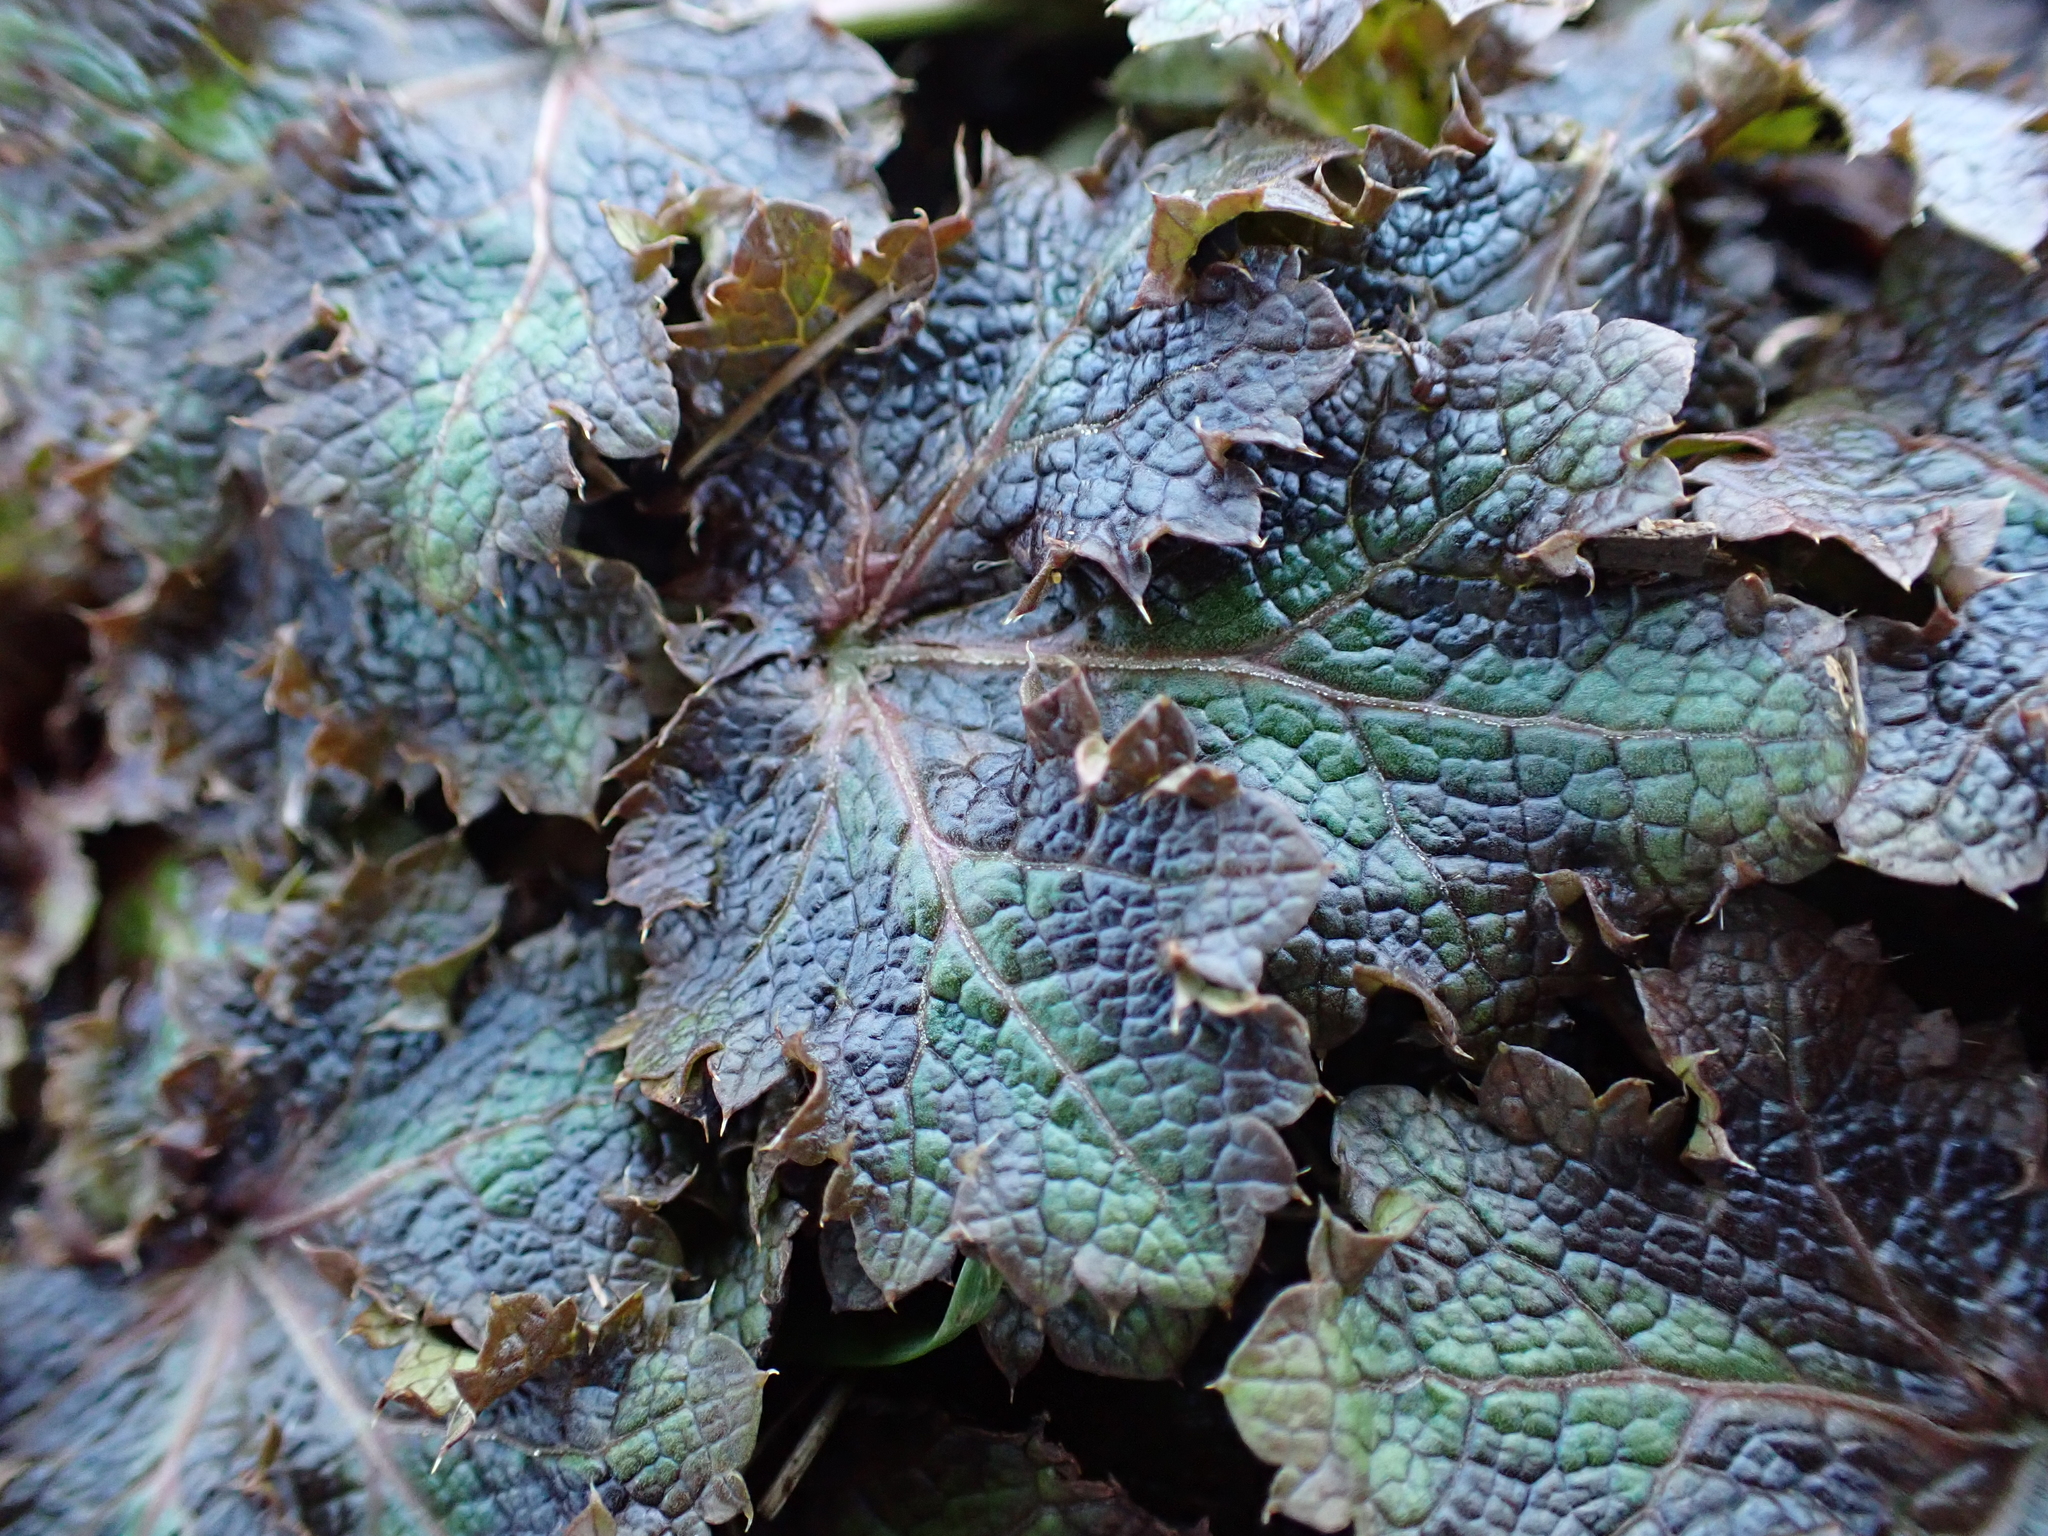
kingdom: Plantae
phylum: Tracheophyta
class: Magnoliopsida
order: Apiales
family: Apiaceae
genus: Sanicula
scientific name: Sanicula crassicaulis
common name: Western snakeroot
